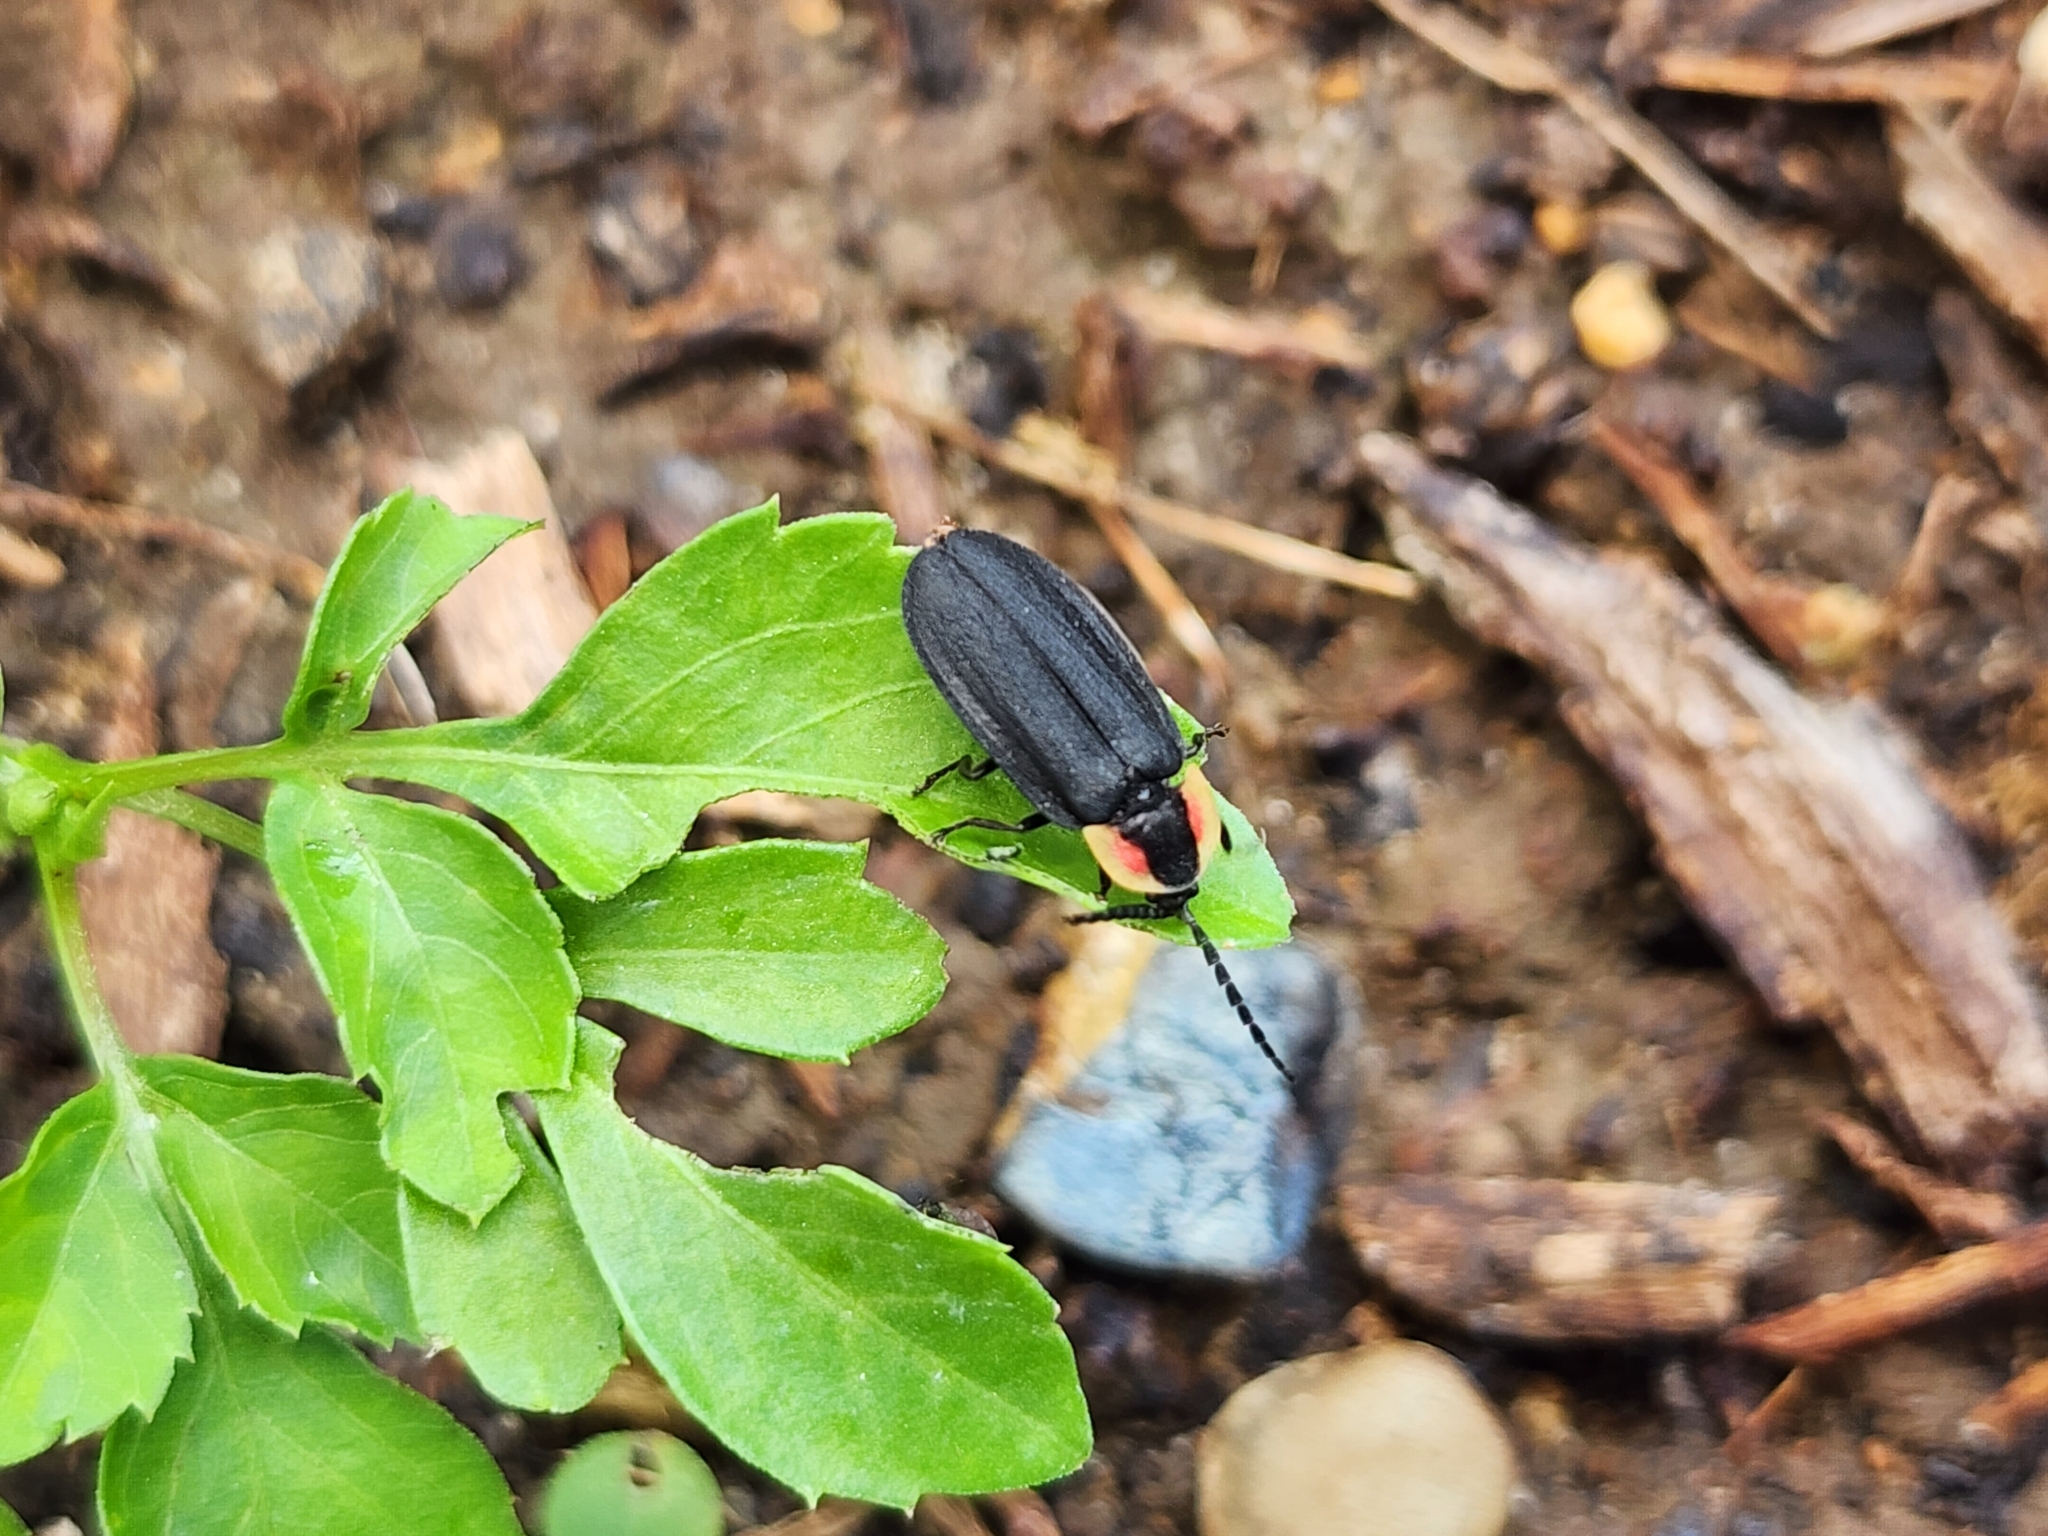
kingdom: Animalia
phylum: Arthropoda
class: Insecta
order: Coleoptera
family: Lampyridae
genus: Lucidota
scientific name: Lucidota atra
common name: Black firefly
